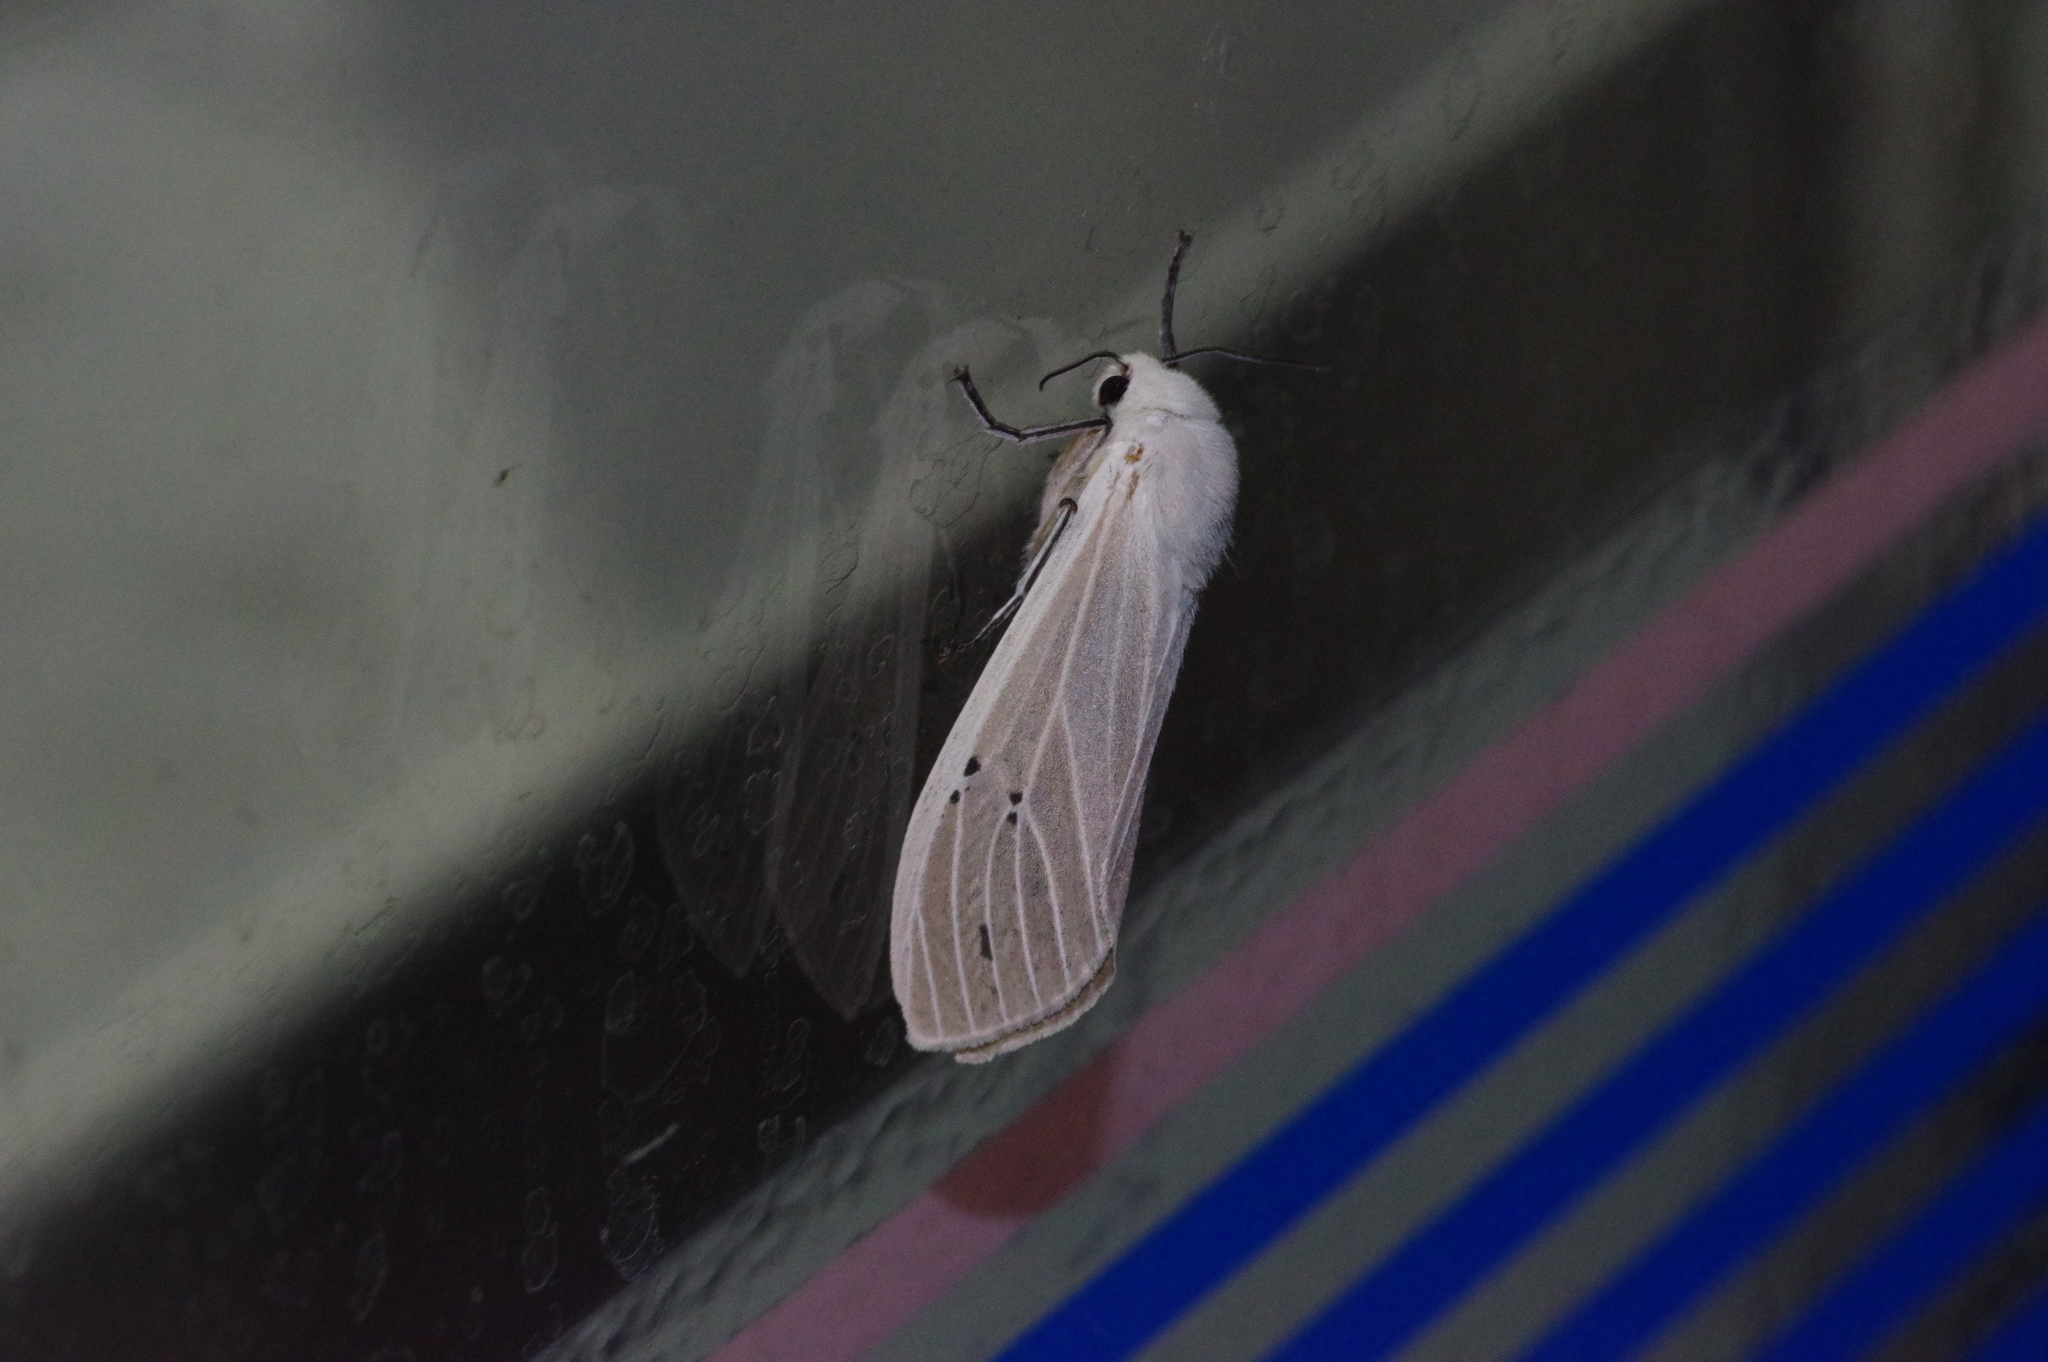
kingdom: Animalia
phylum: Arthropoda
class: Insecta
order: Lepidoptera
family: Erebidae
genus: Creatonotos
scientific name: Creatonotos transiens
